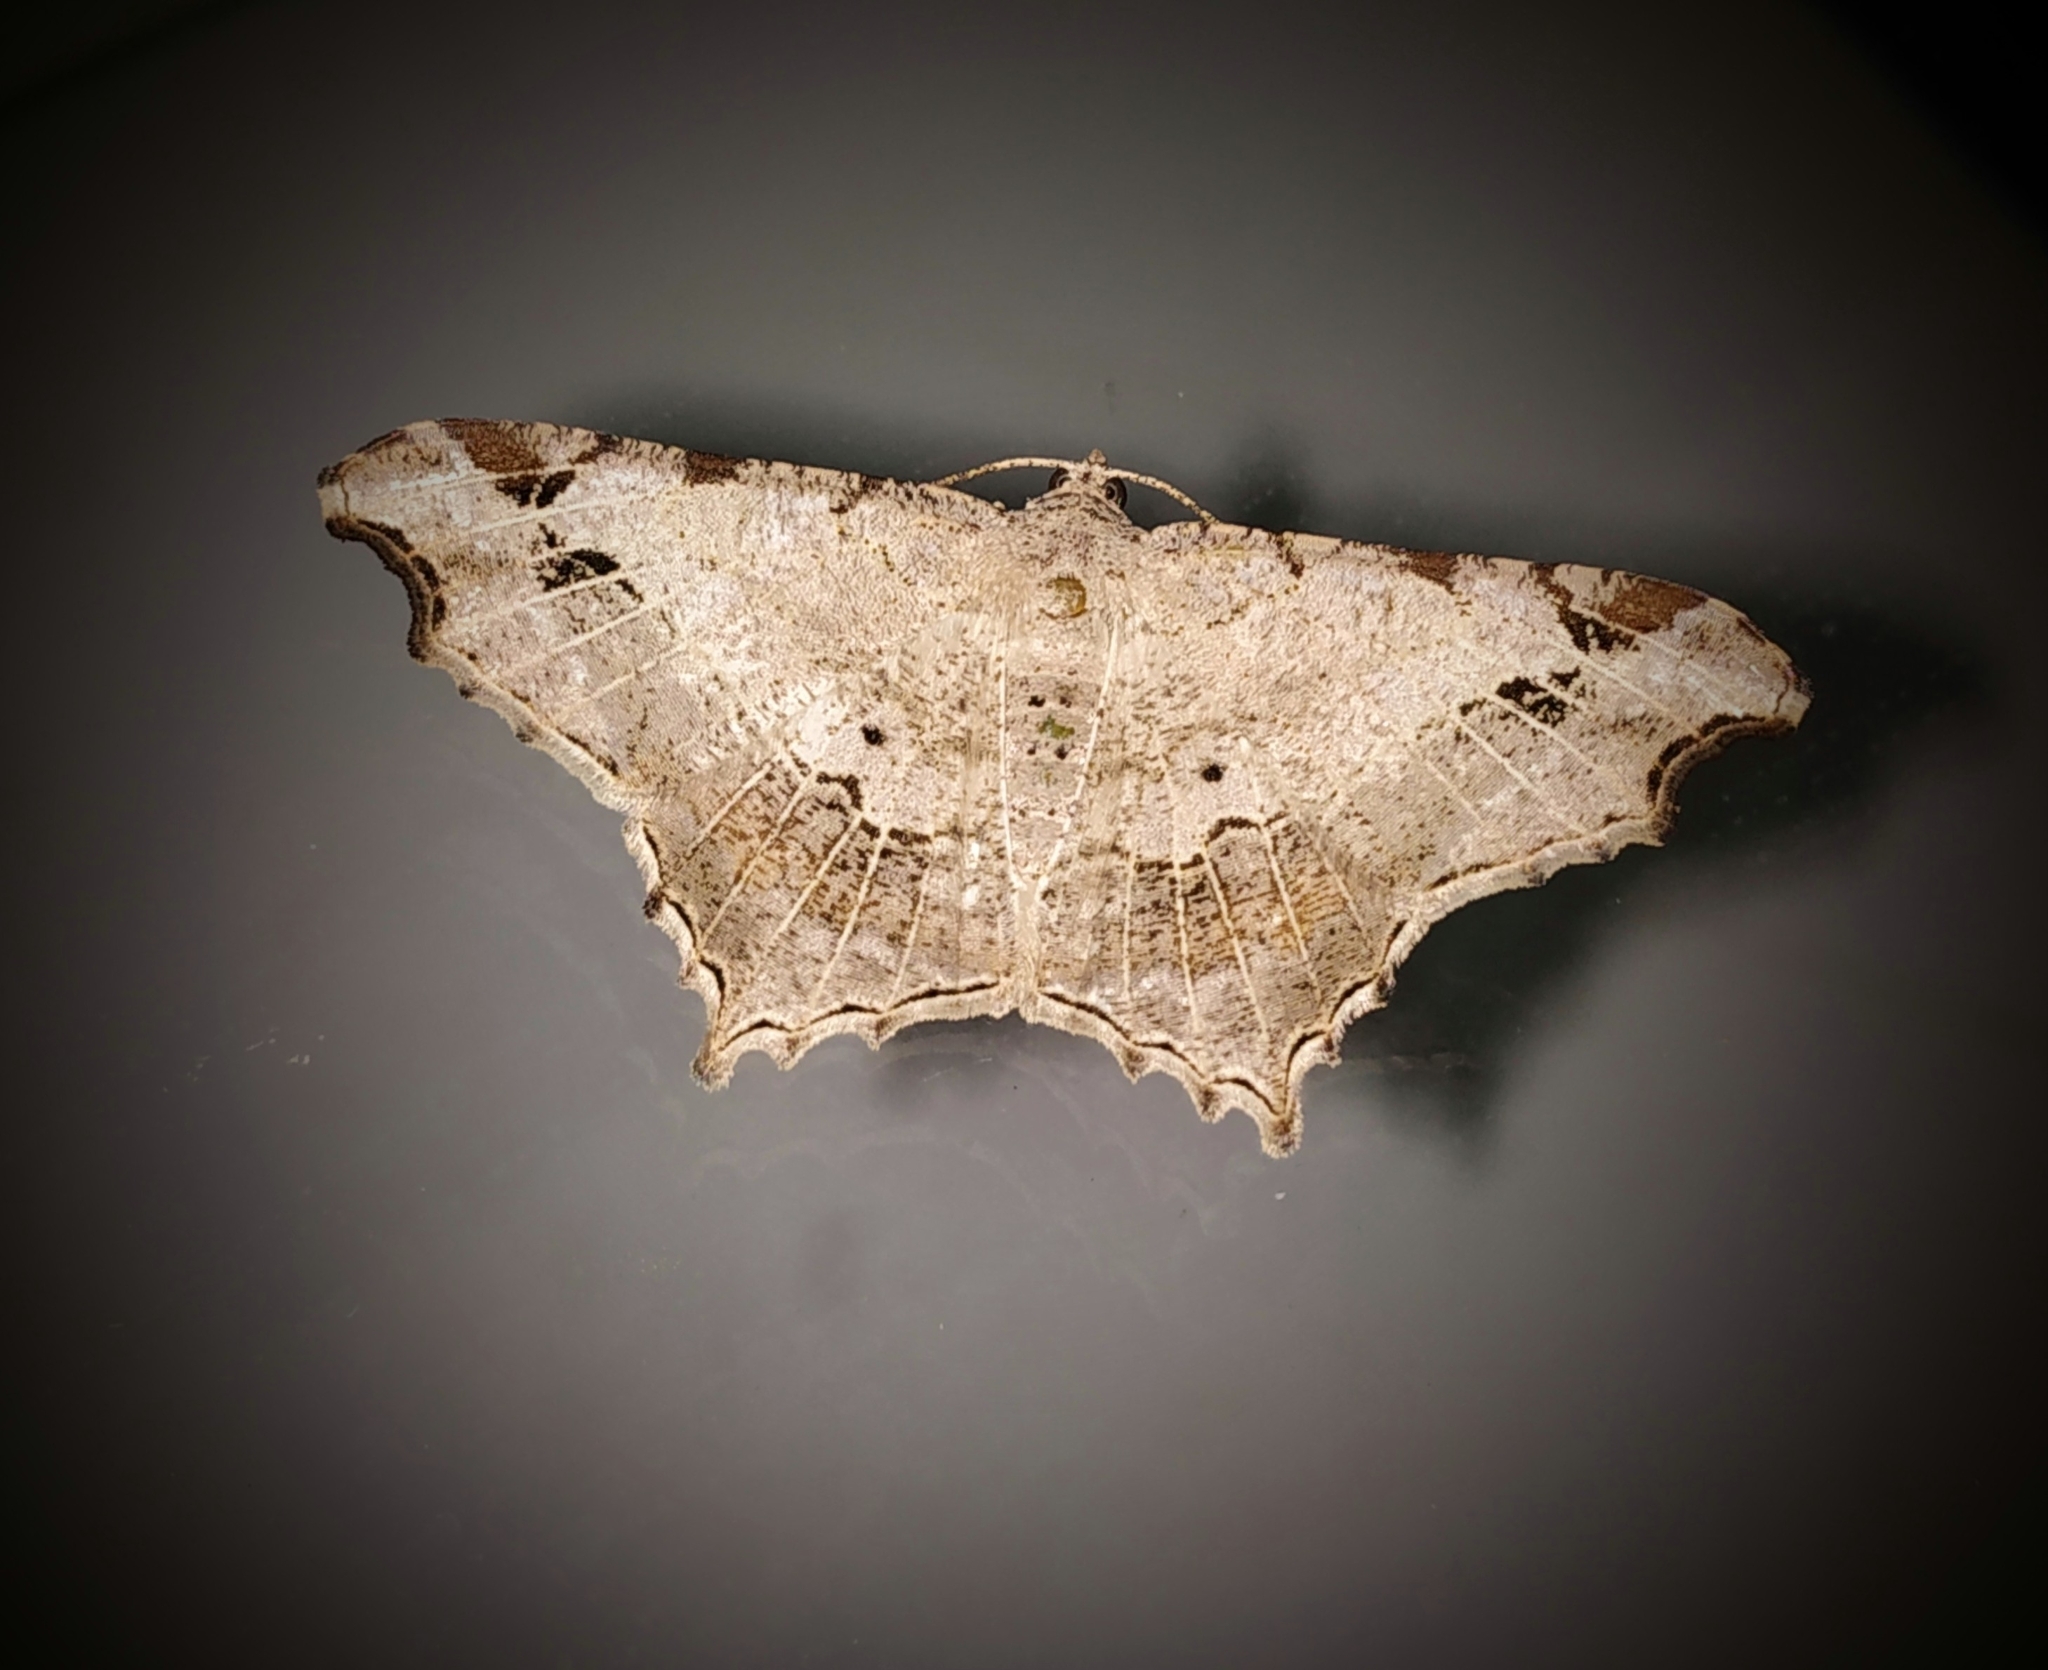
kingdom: Animalia
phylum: Arthropoda
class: Insecta
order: Lepidoptera
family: Geometridae
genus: Chiasmia
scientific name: Chiasmia emersaria
